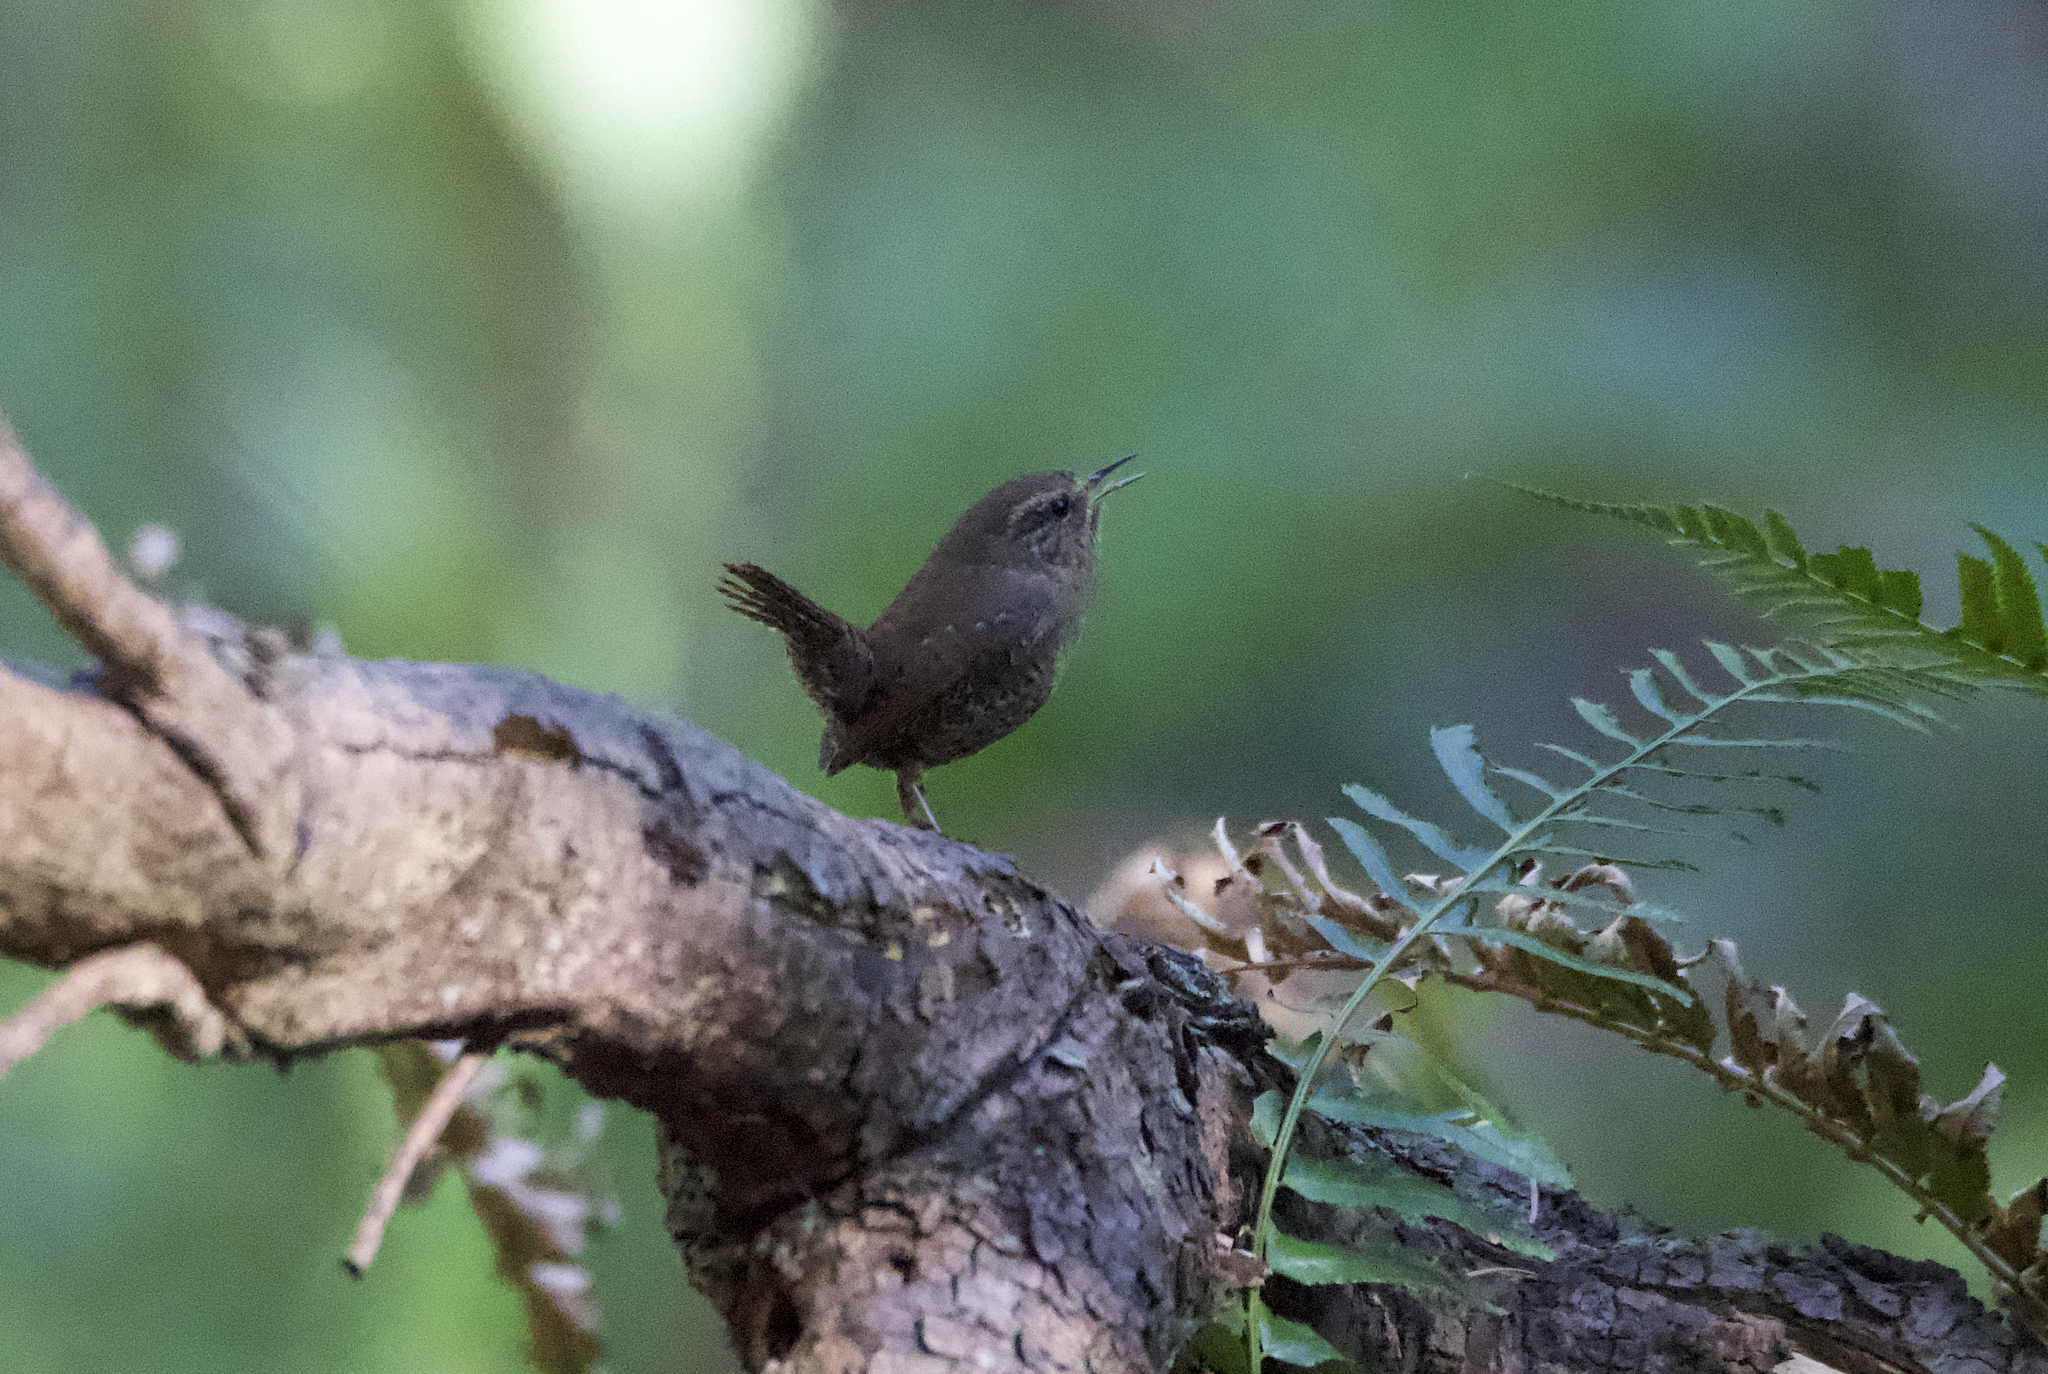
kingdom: Animalia
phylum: Chordata
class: Aves
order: Passeriformes
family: Troglodytidae
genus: Troglodytes
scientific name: Troglodytes pacificus
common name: Pacific wren
